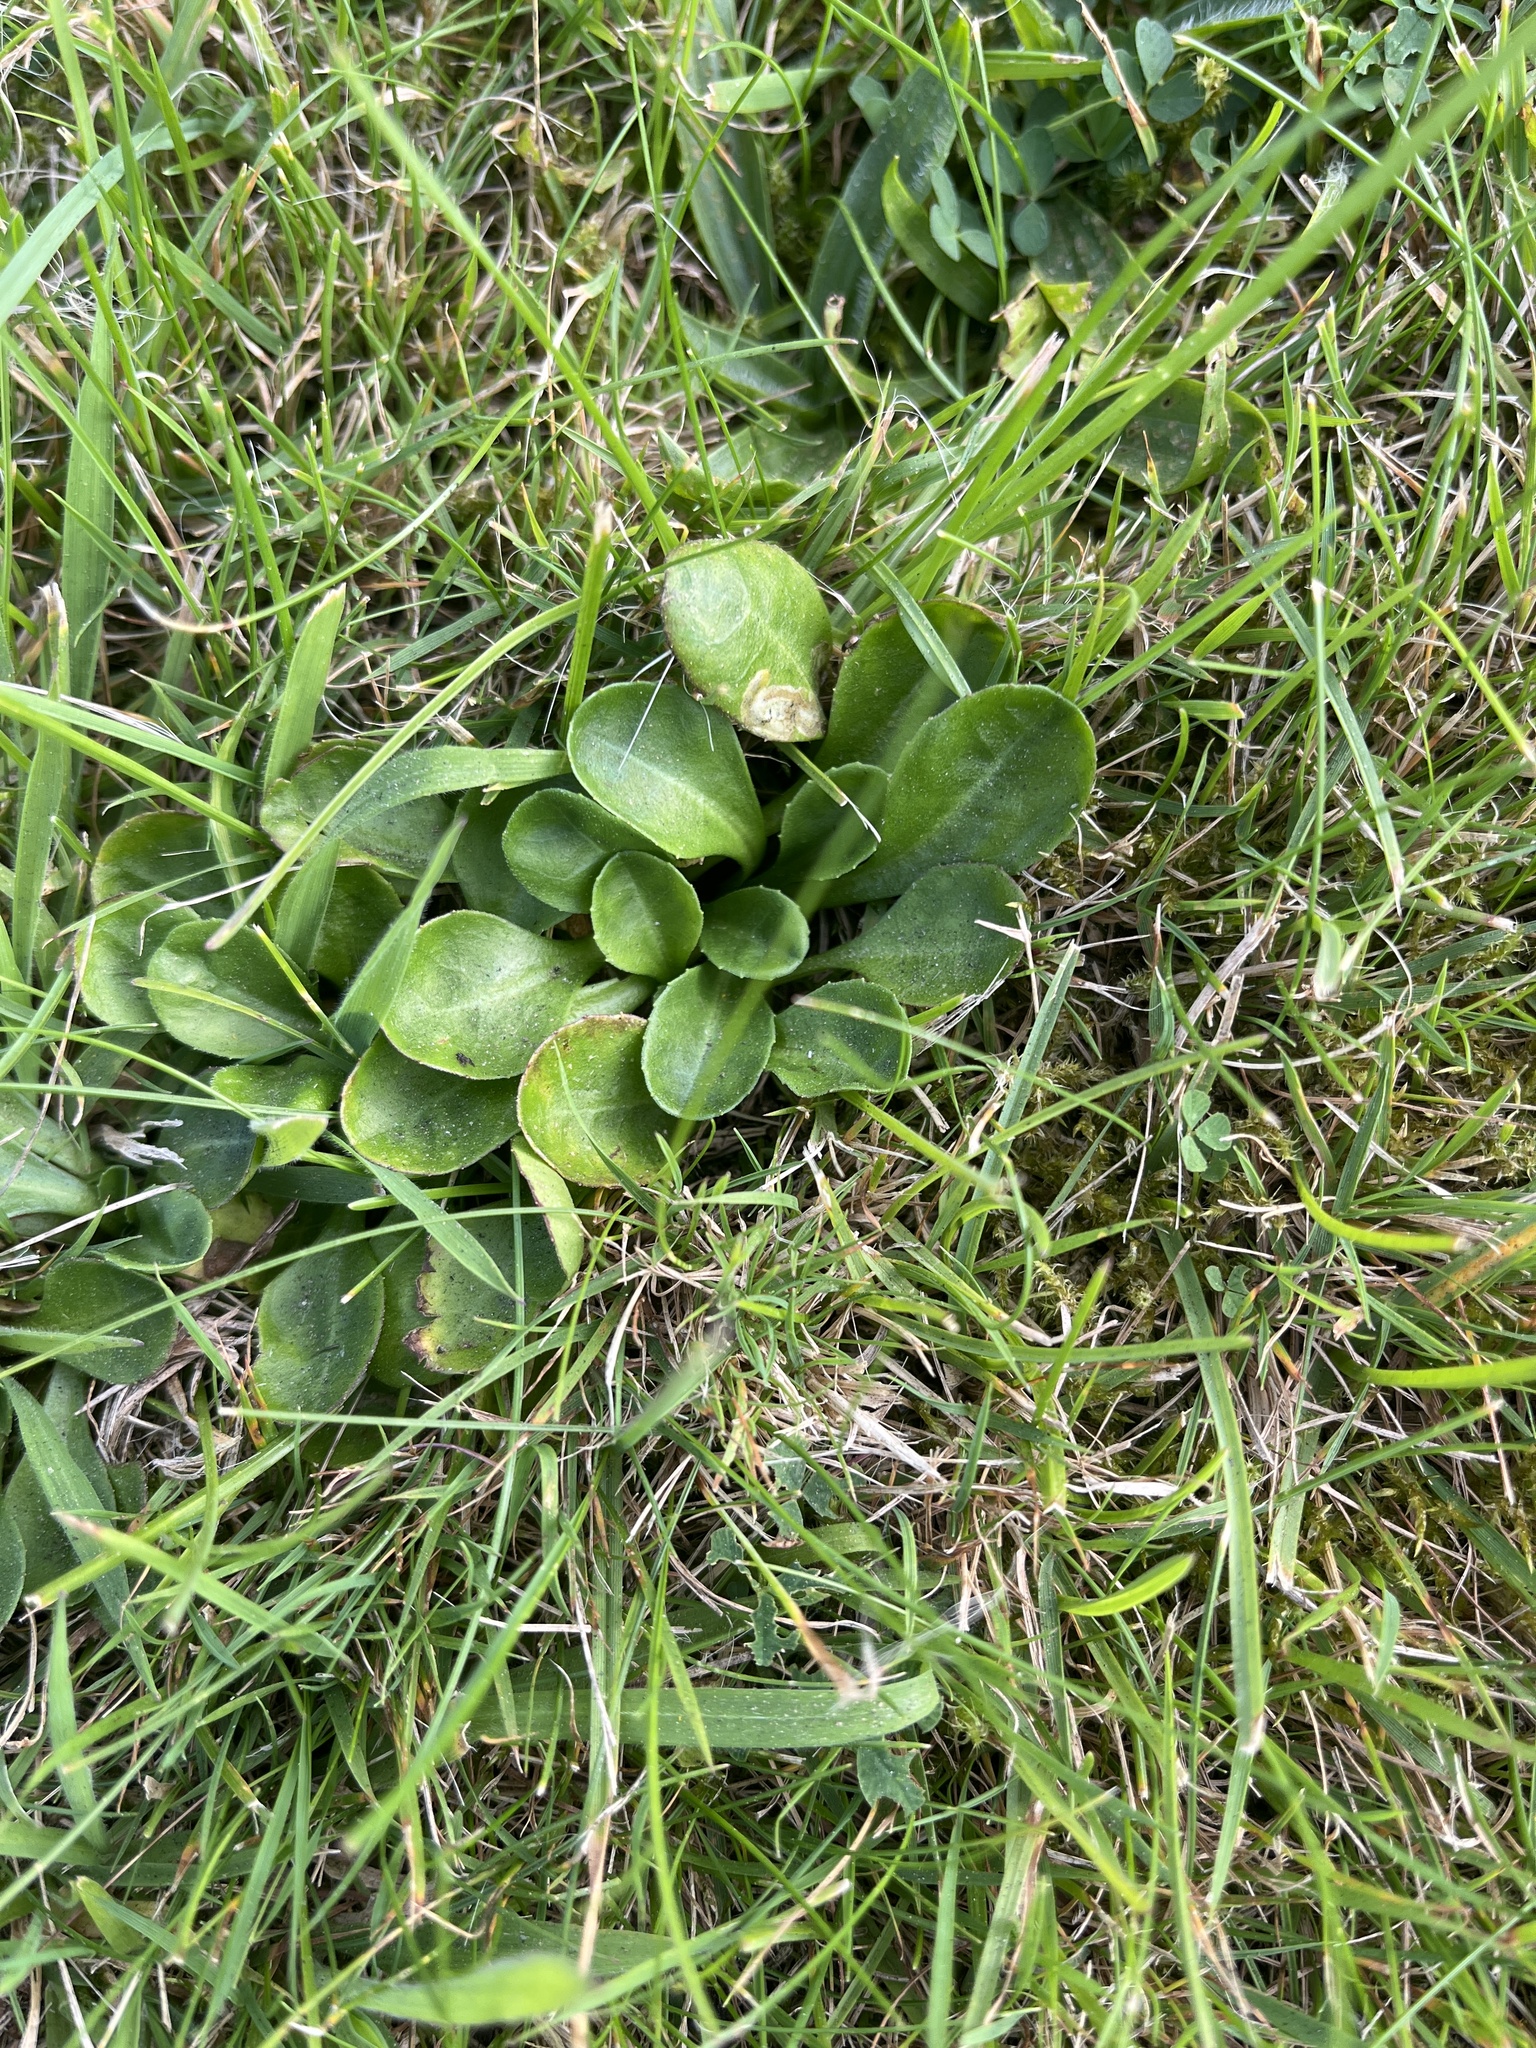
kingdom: Plantae
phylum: Tracheophyta
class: Magnoliopsida
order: Asterales
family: Asteraceae
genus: Bellis
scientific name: Bellis perennis
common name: Lawndaisy
